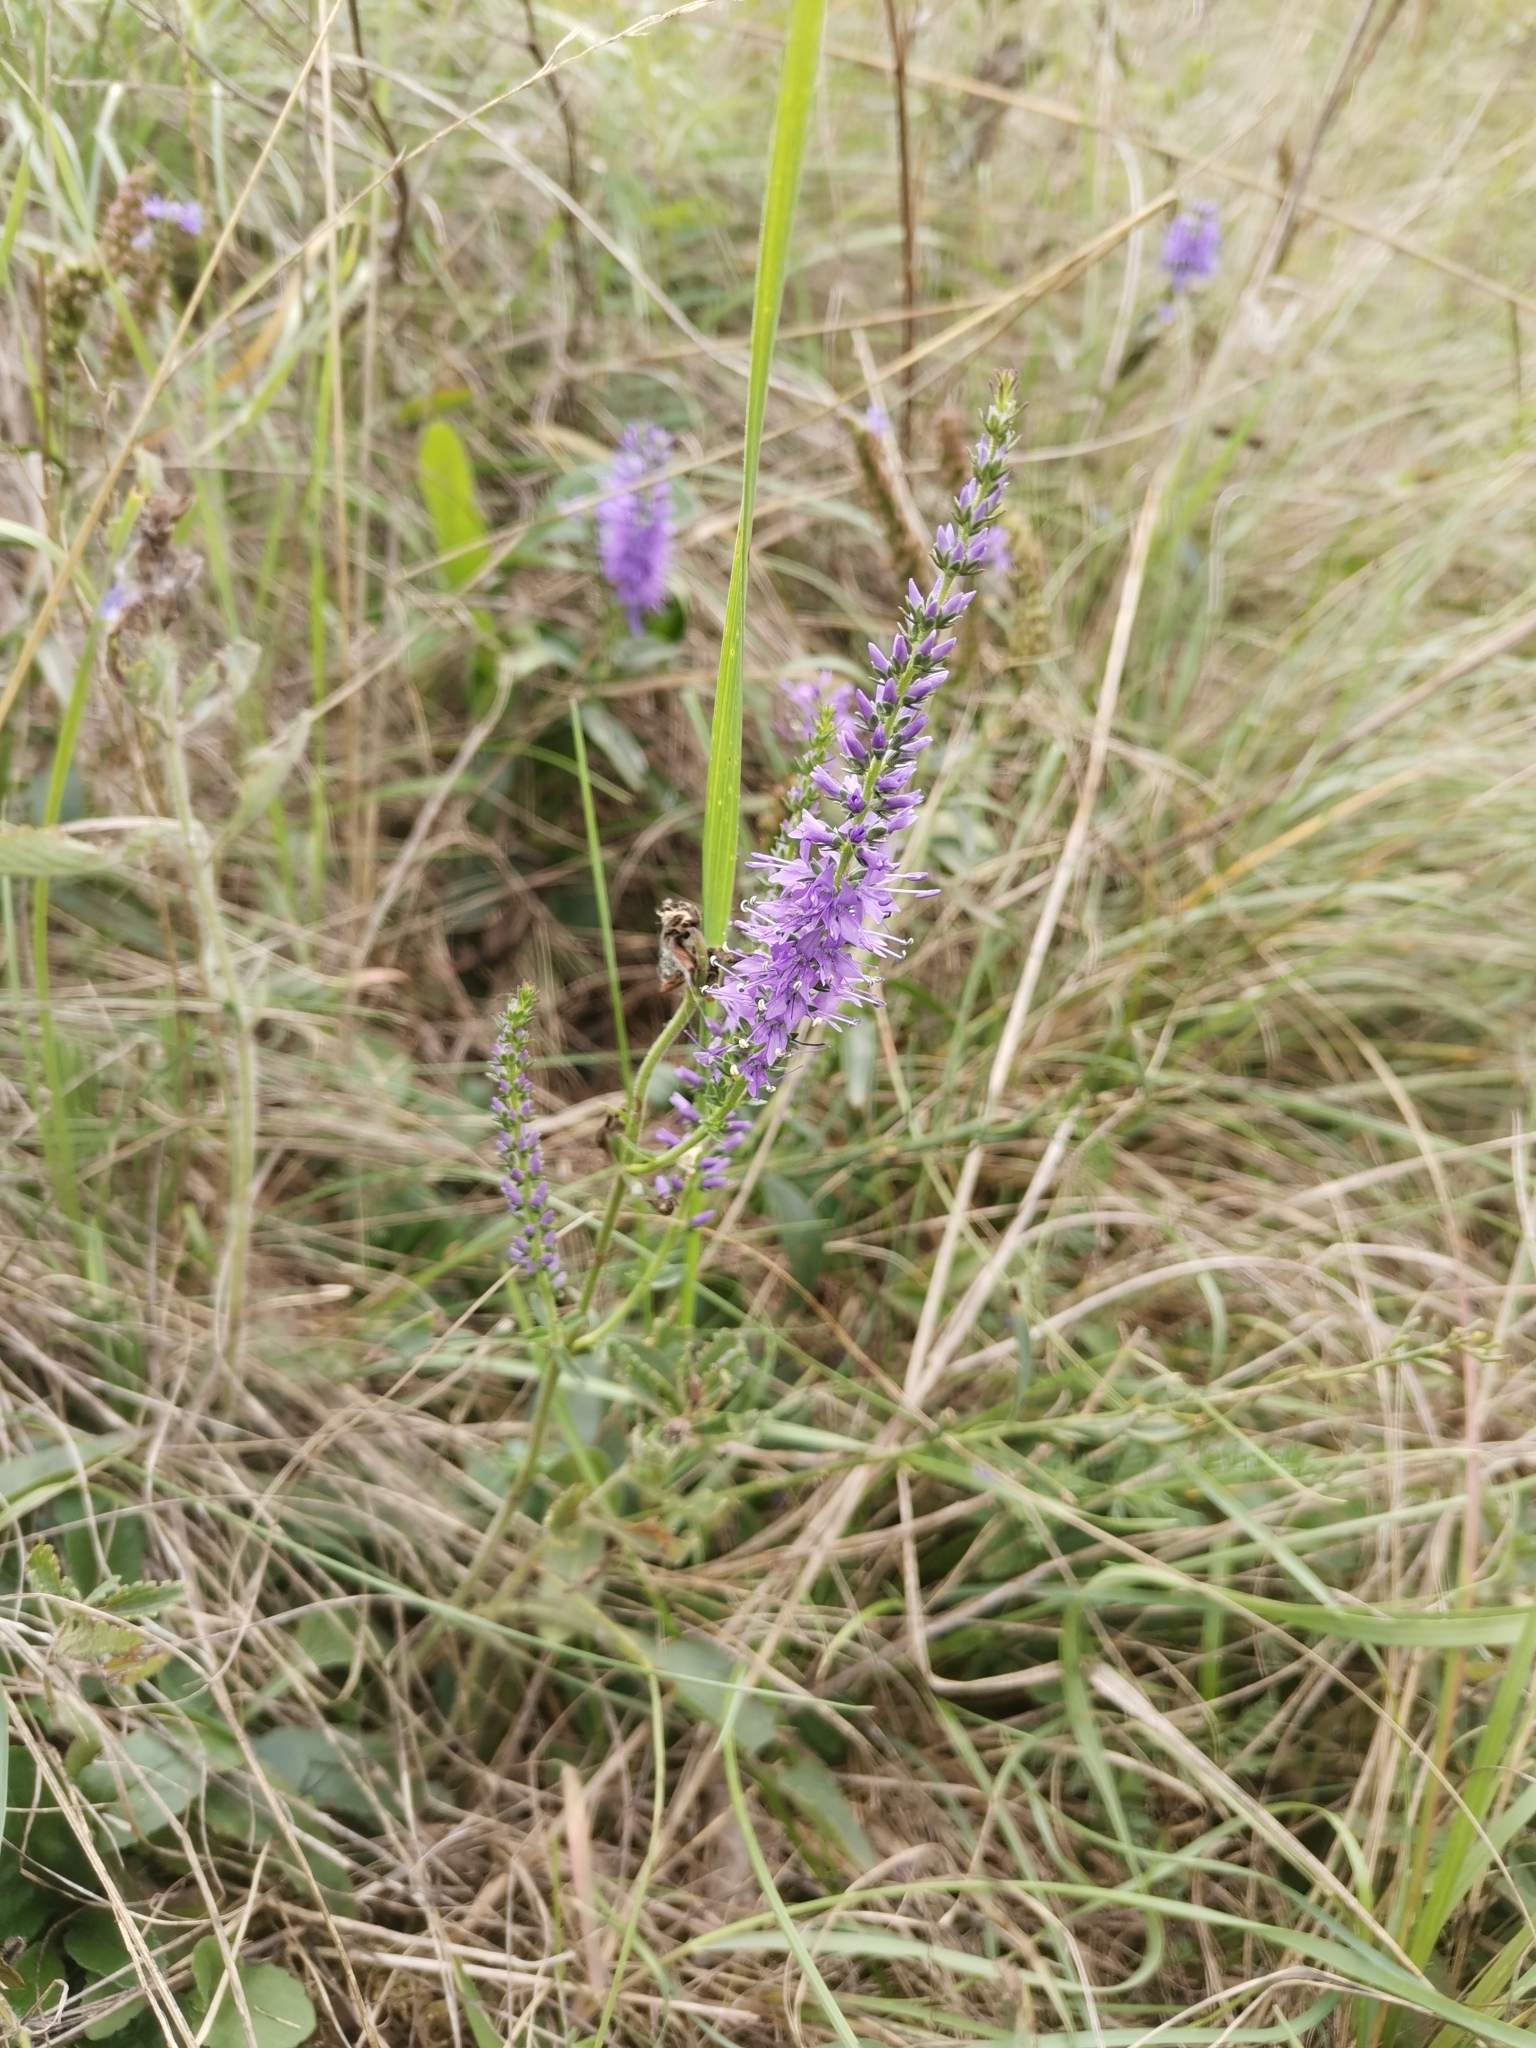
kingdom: Plantae
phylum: Tracheophyta
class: Magnoliopsida
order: Lamiales
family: Plantaginaceae
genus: Veronica
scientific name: Veronica barrelieri
